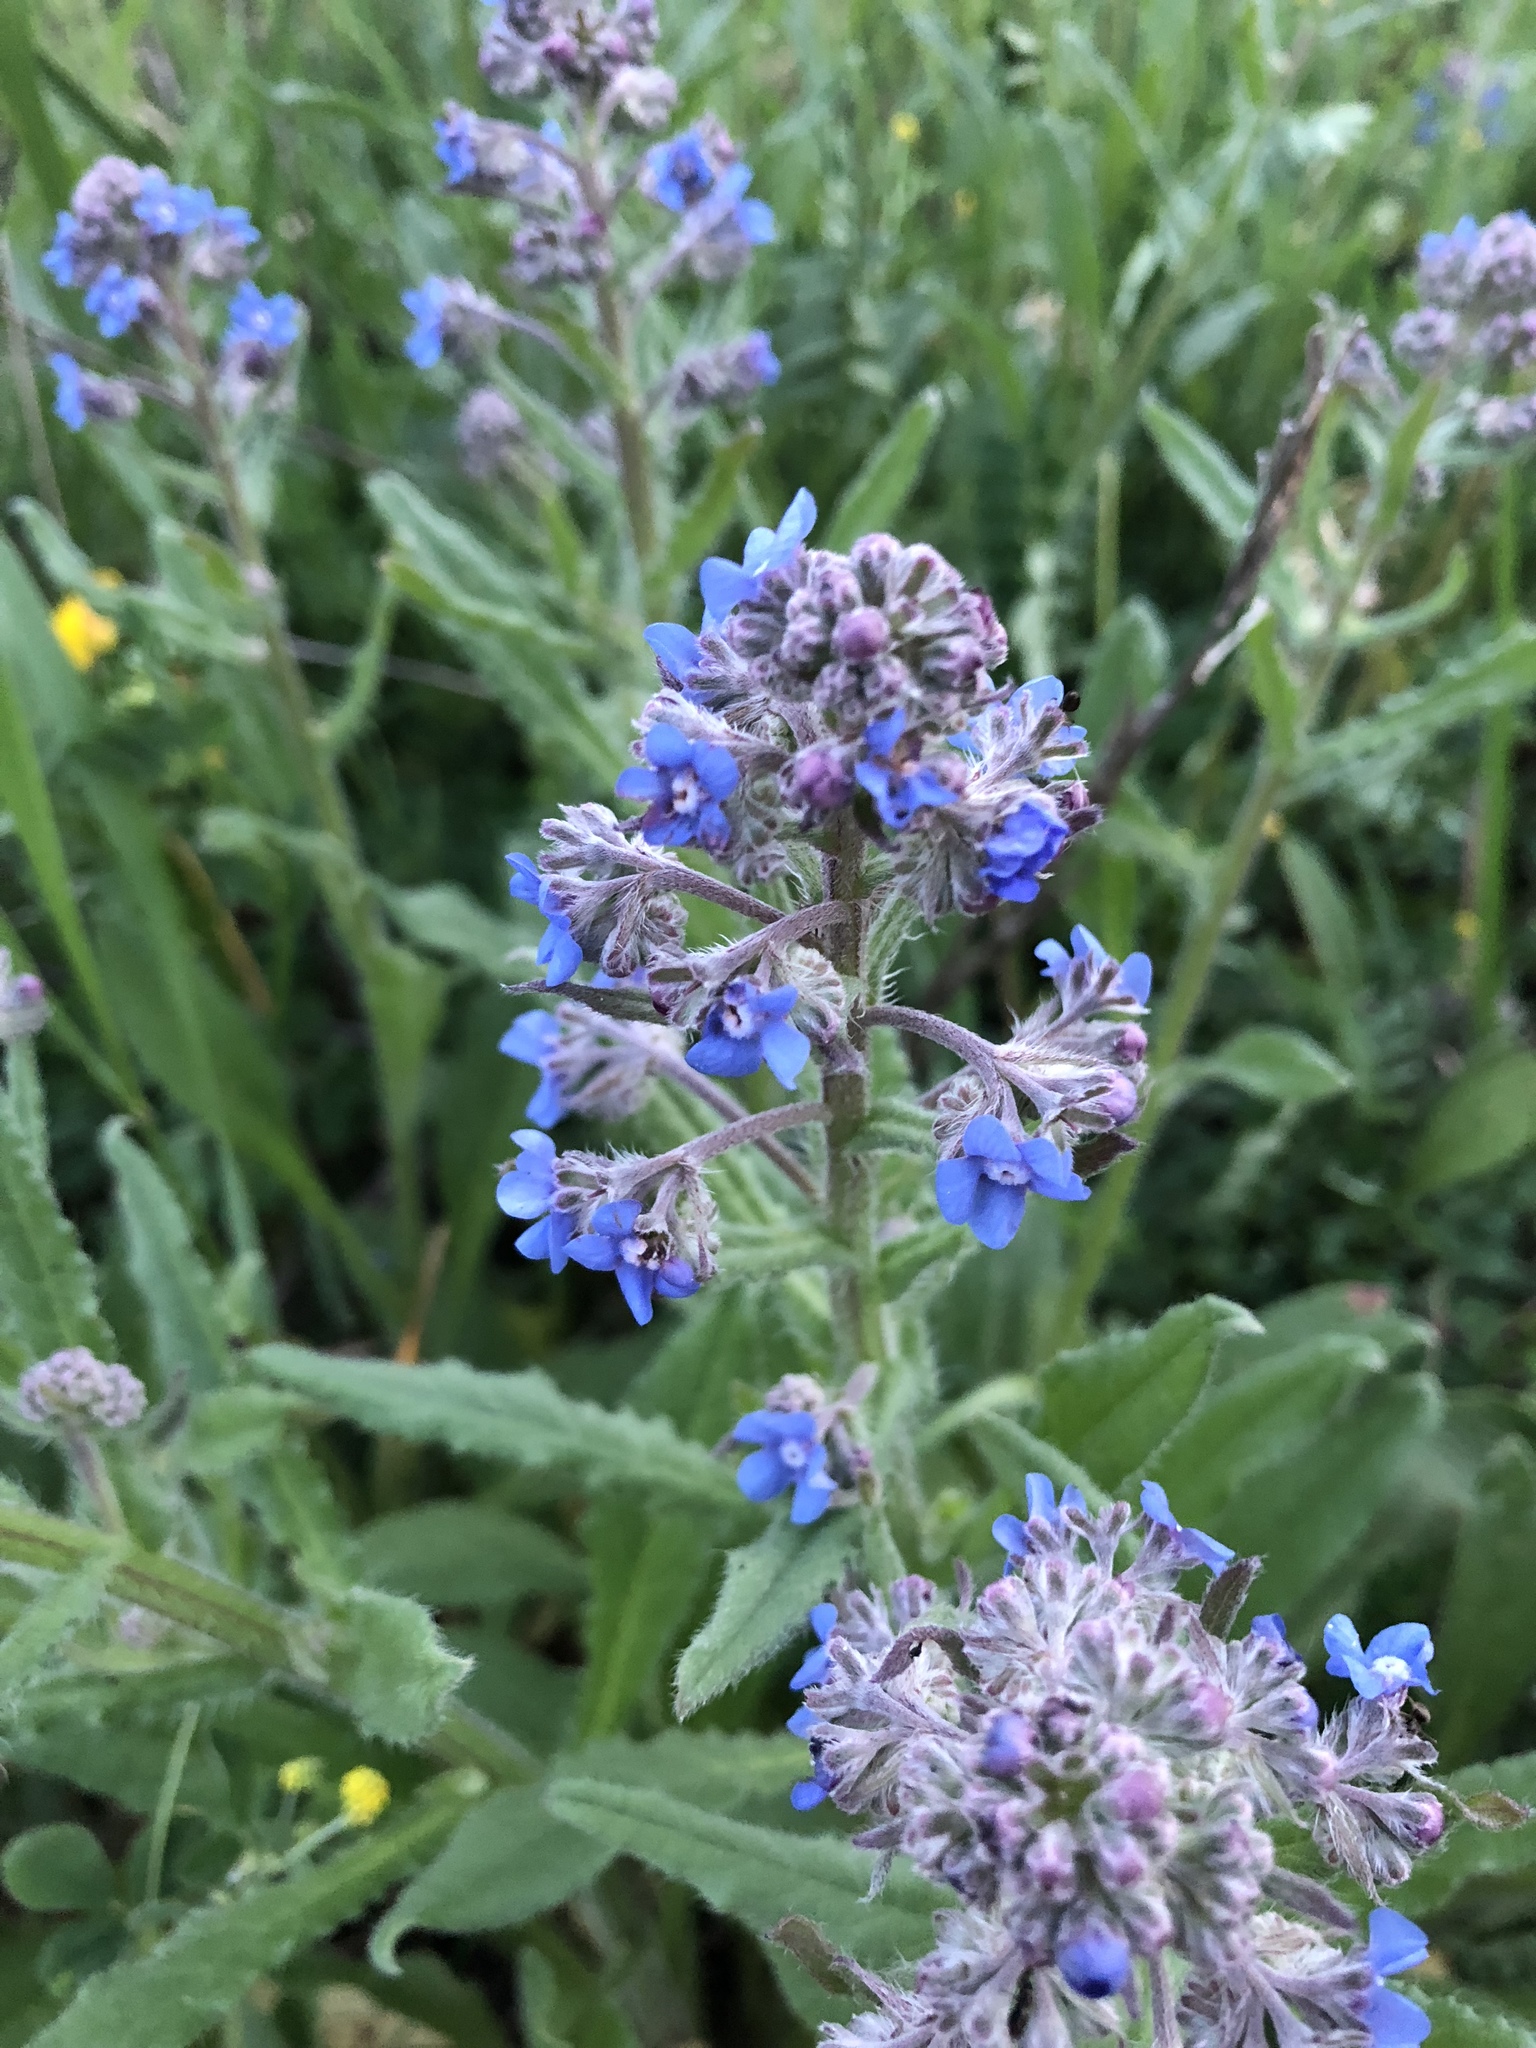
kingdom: Plantae
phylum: Tracheophyta
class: Magnoliopsida
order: Boraginales
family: Boraginaceae
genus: Cynoglottis
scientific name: Cynoglottis barrelieri
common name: False alkanet
